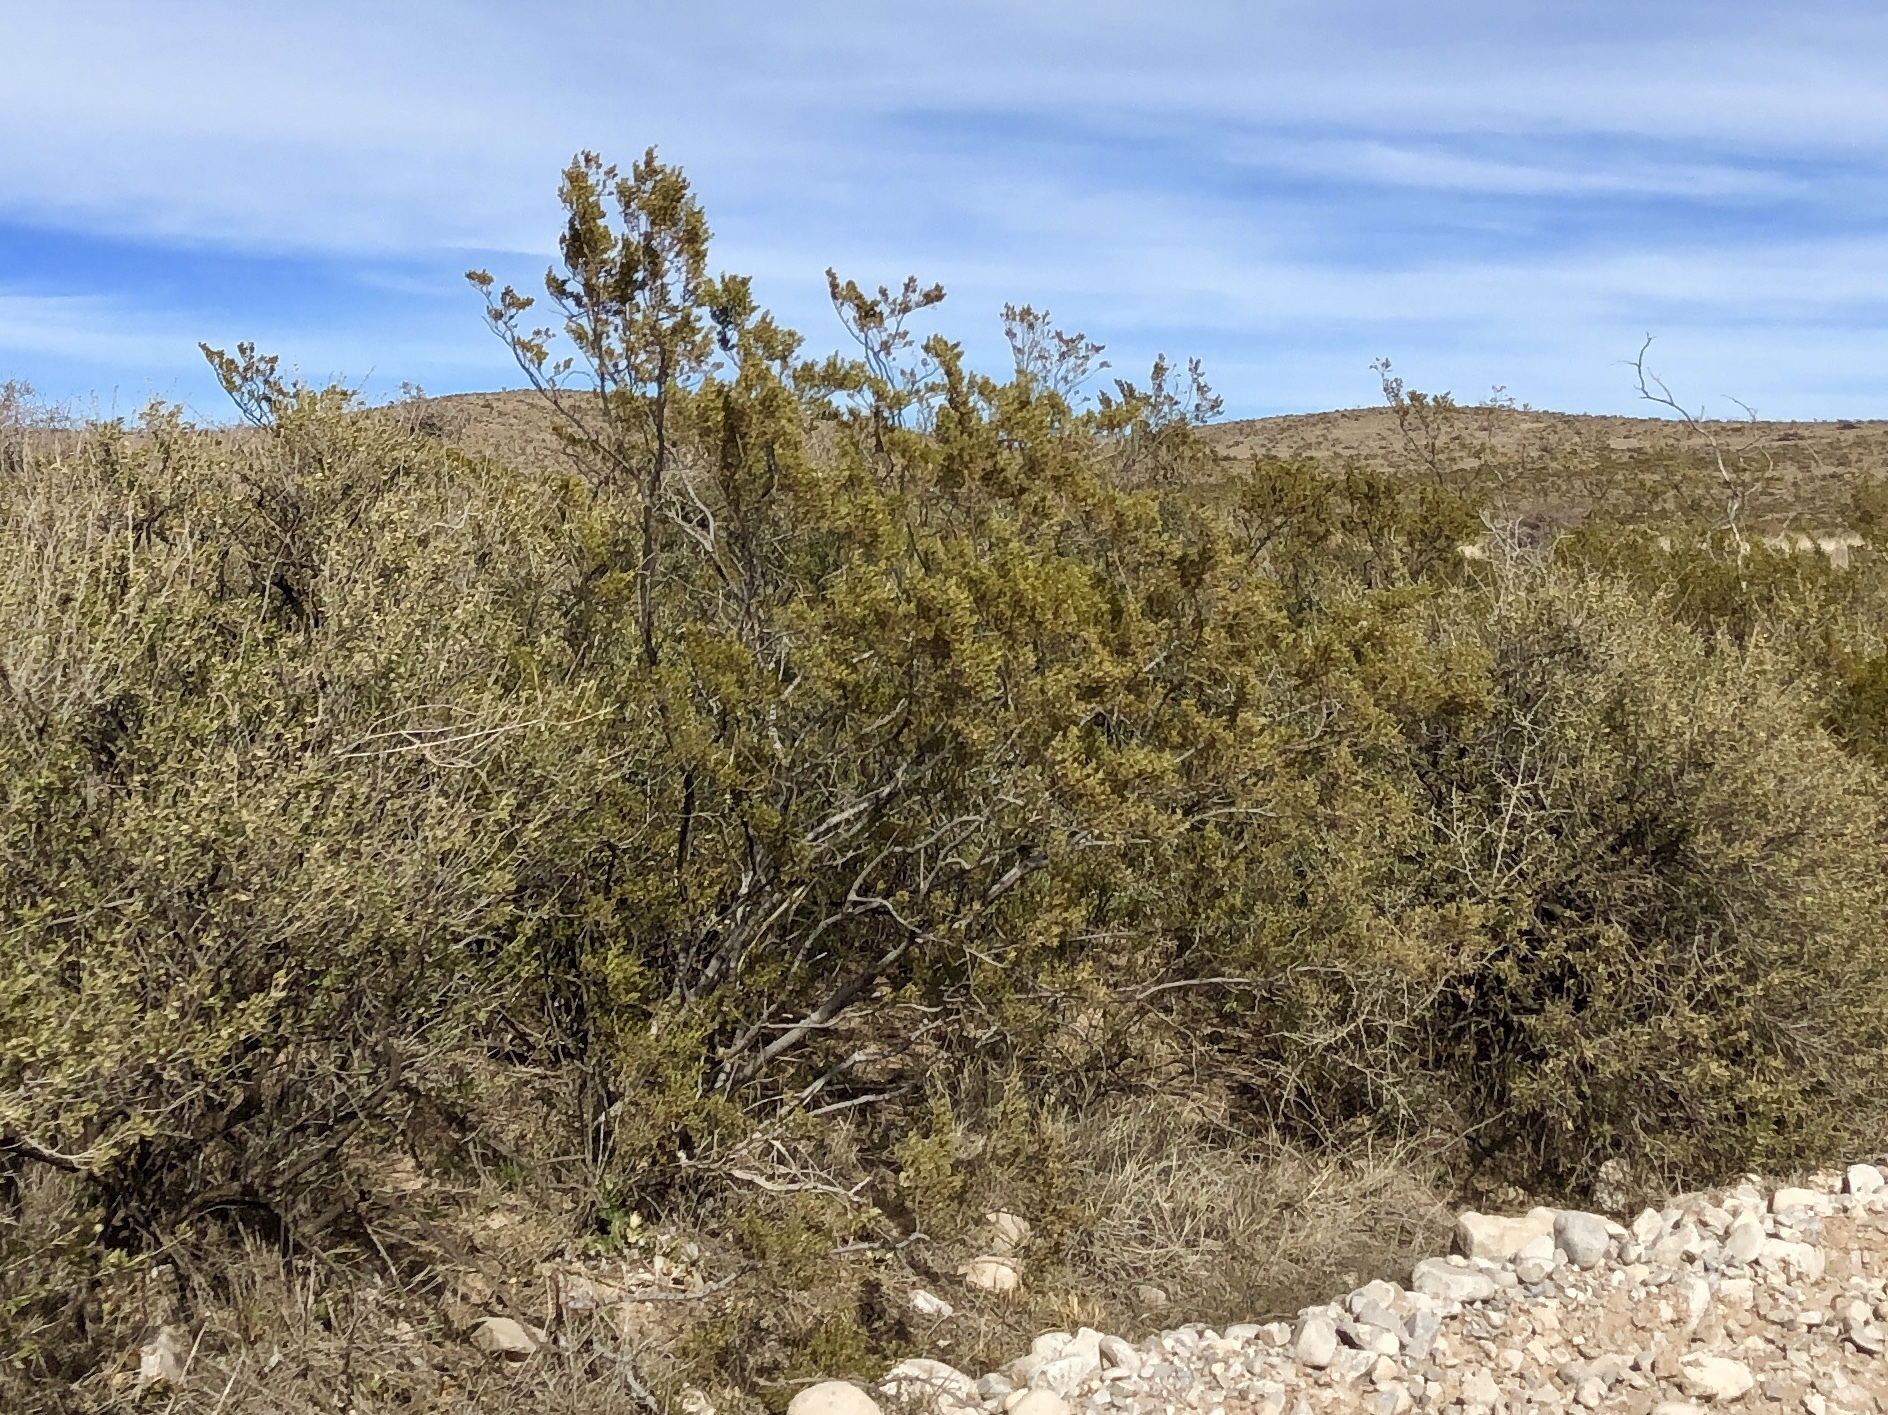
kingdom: Plantae
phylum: Tracheophyta
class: Magnoliopsida
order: Zygophyllales
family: Zygophyllaceae
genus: Larrea
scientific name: Larrea tridentata
